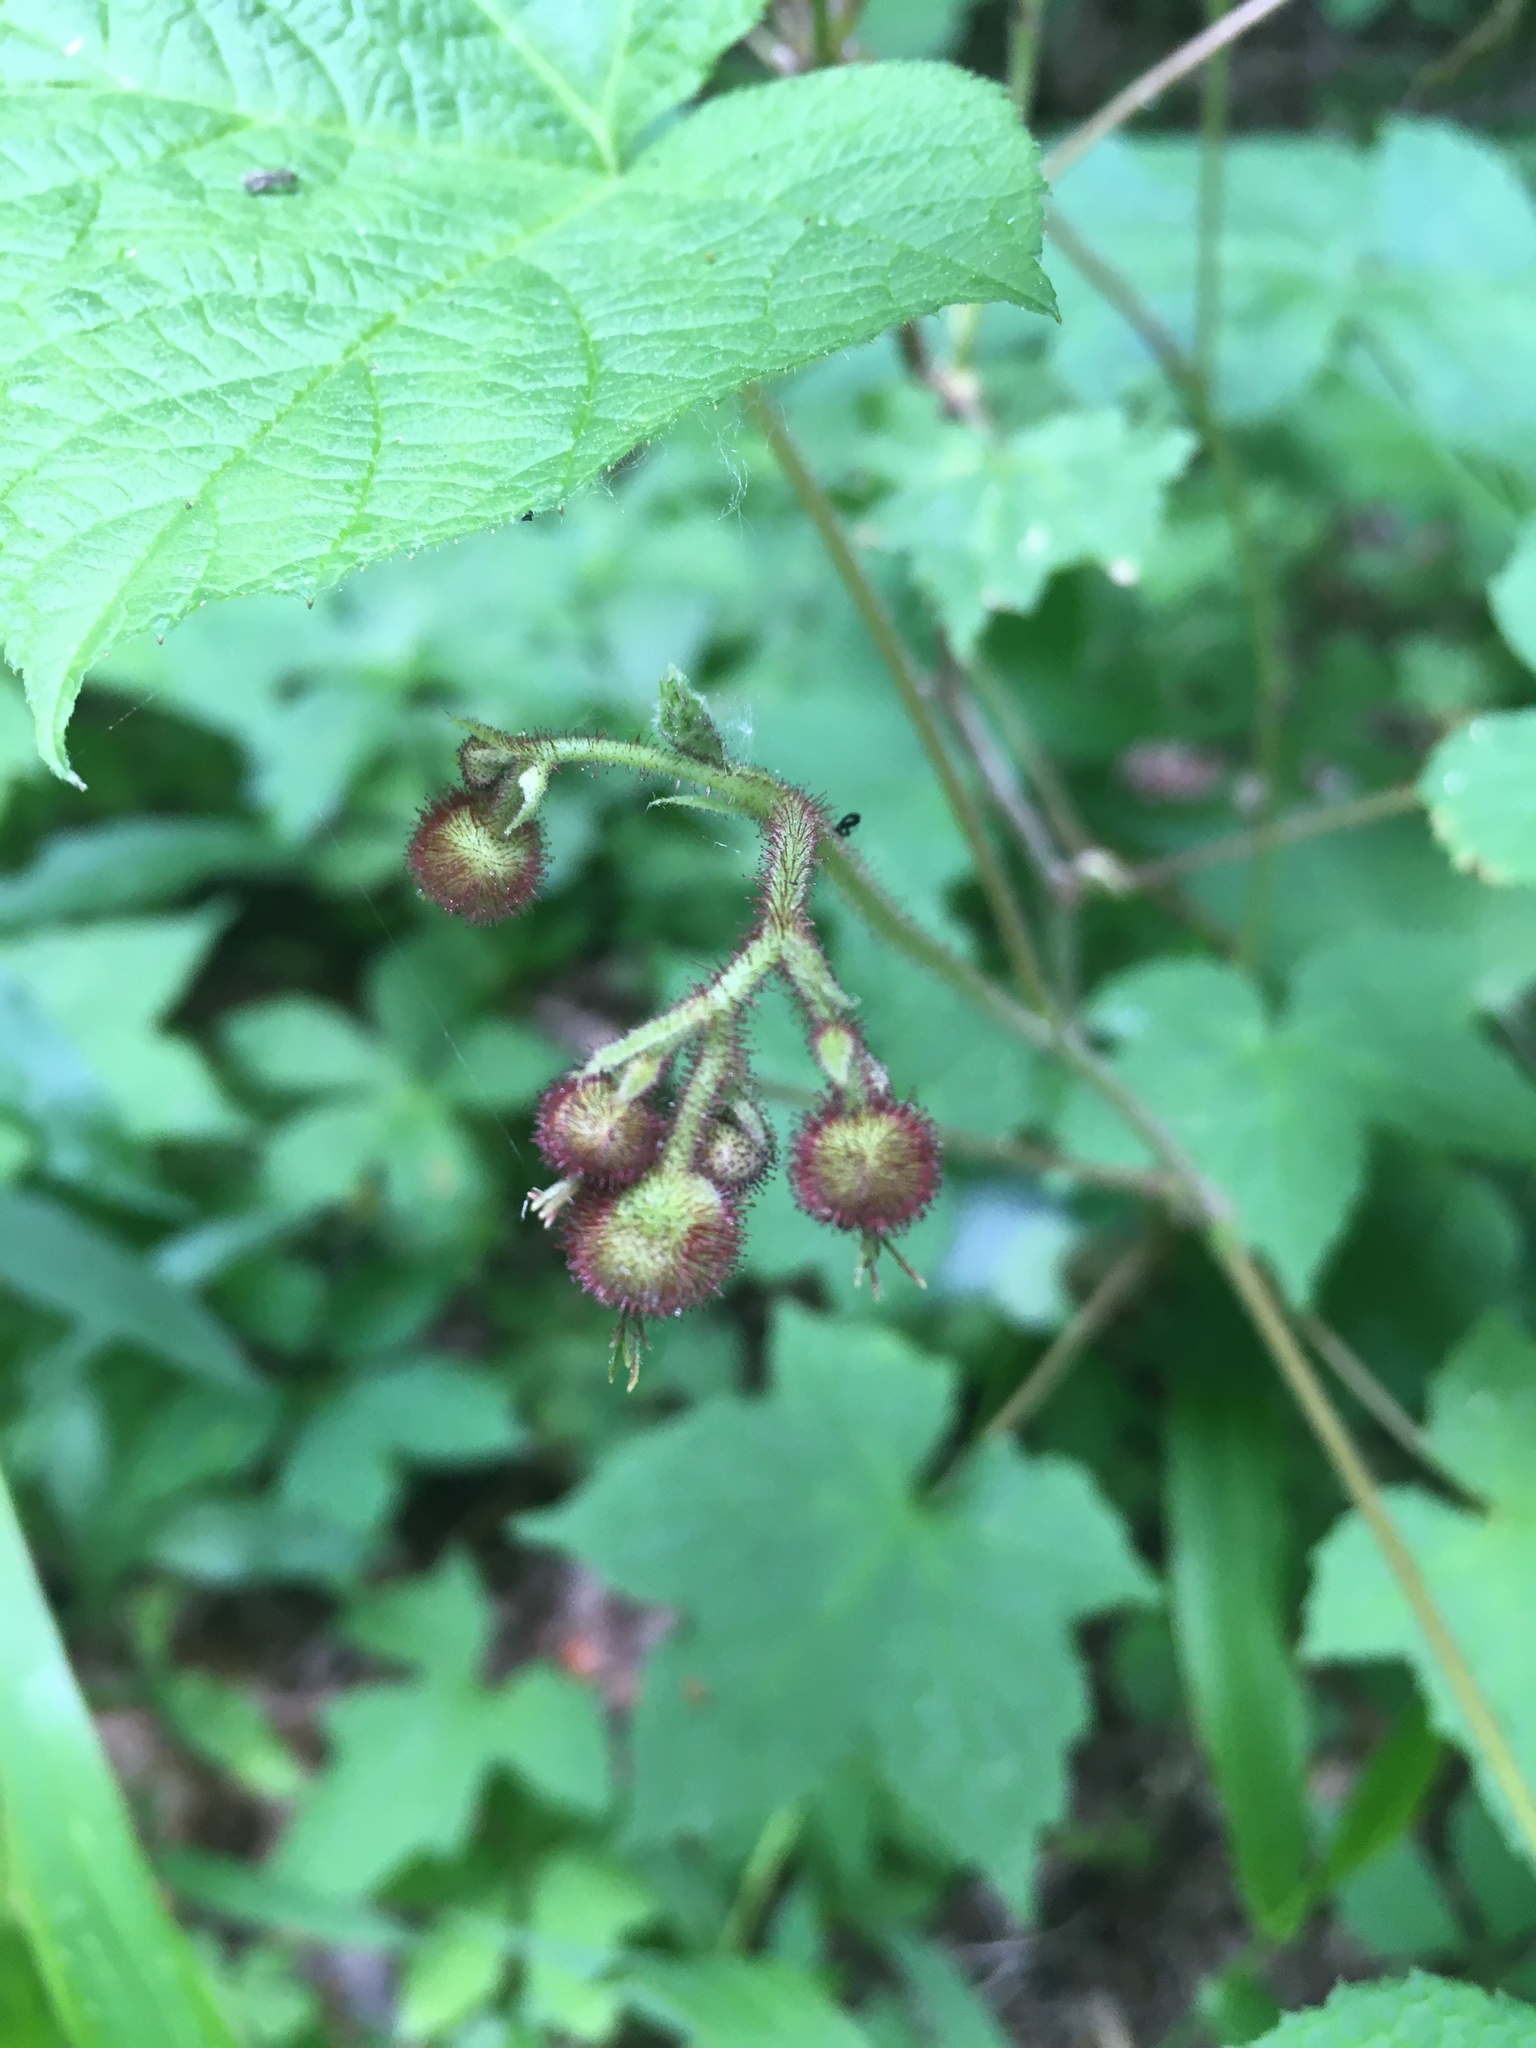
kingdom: Plantae
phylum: Tracheophyta
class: Magnoliopsida
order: Rosales
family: Rosaceae
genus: Rubus
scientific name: Rubus odoratus
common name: Purple-flowered raspberry
